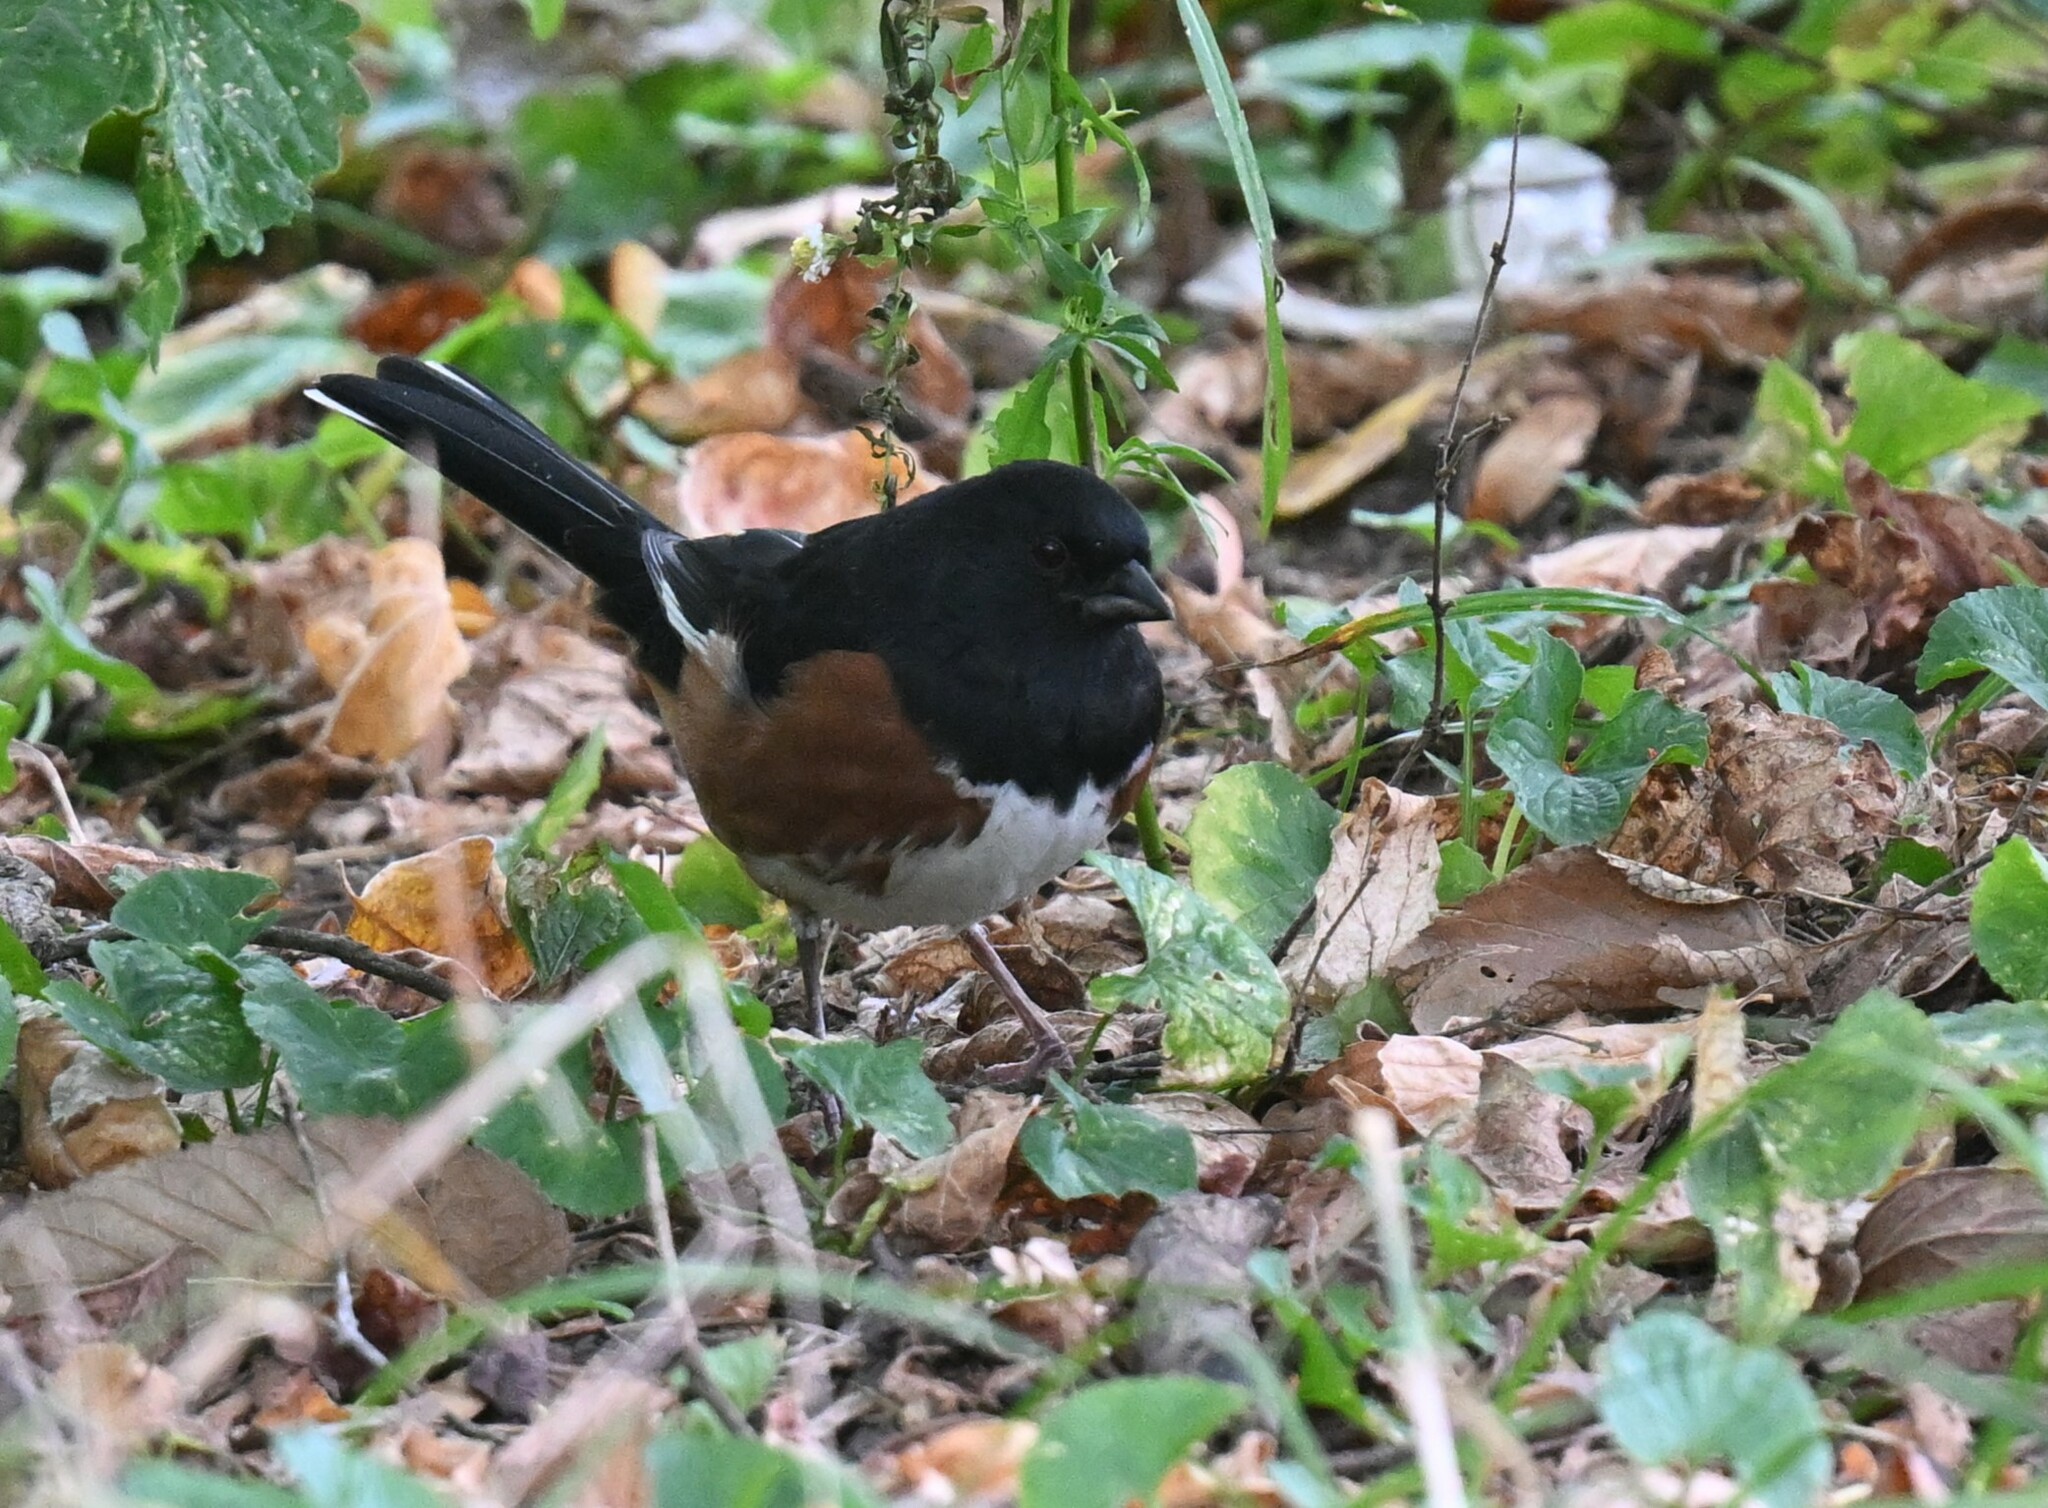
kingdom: Animalia
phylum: Chordata
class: Aves
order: Passeriformes
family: Passerellidae
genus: Pipilo
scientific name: Pipilo erythrophthalmus
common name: Eastern towhee
